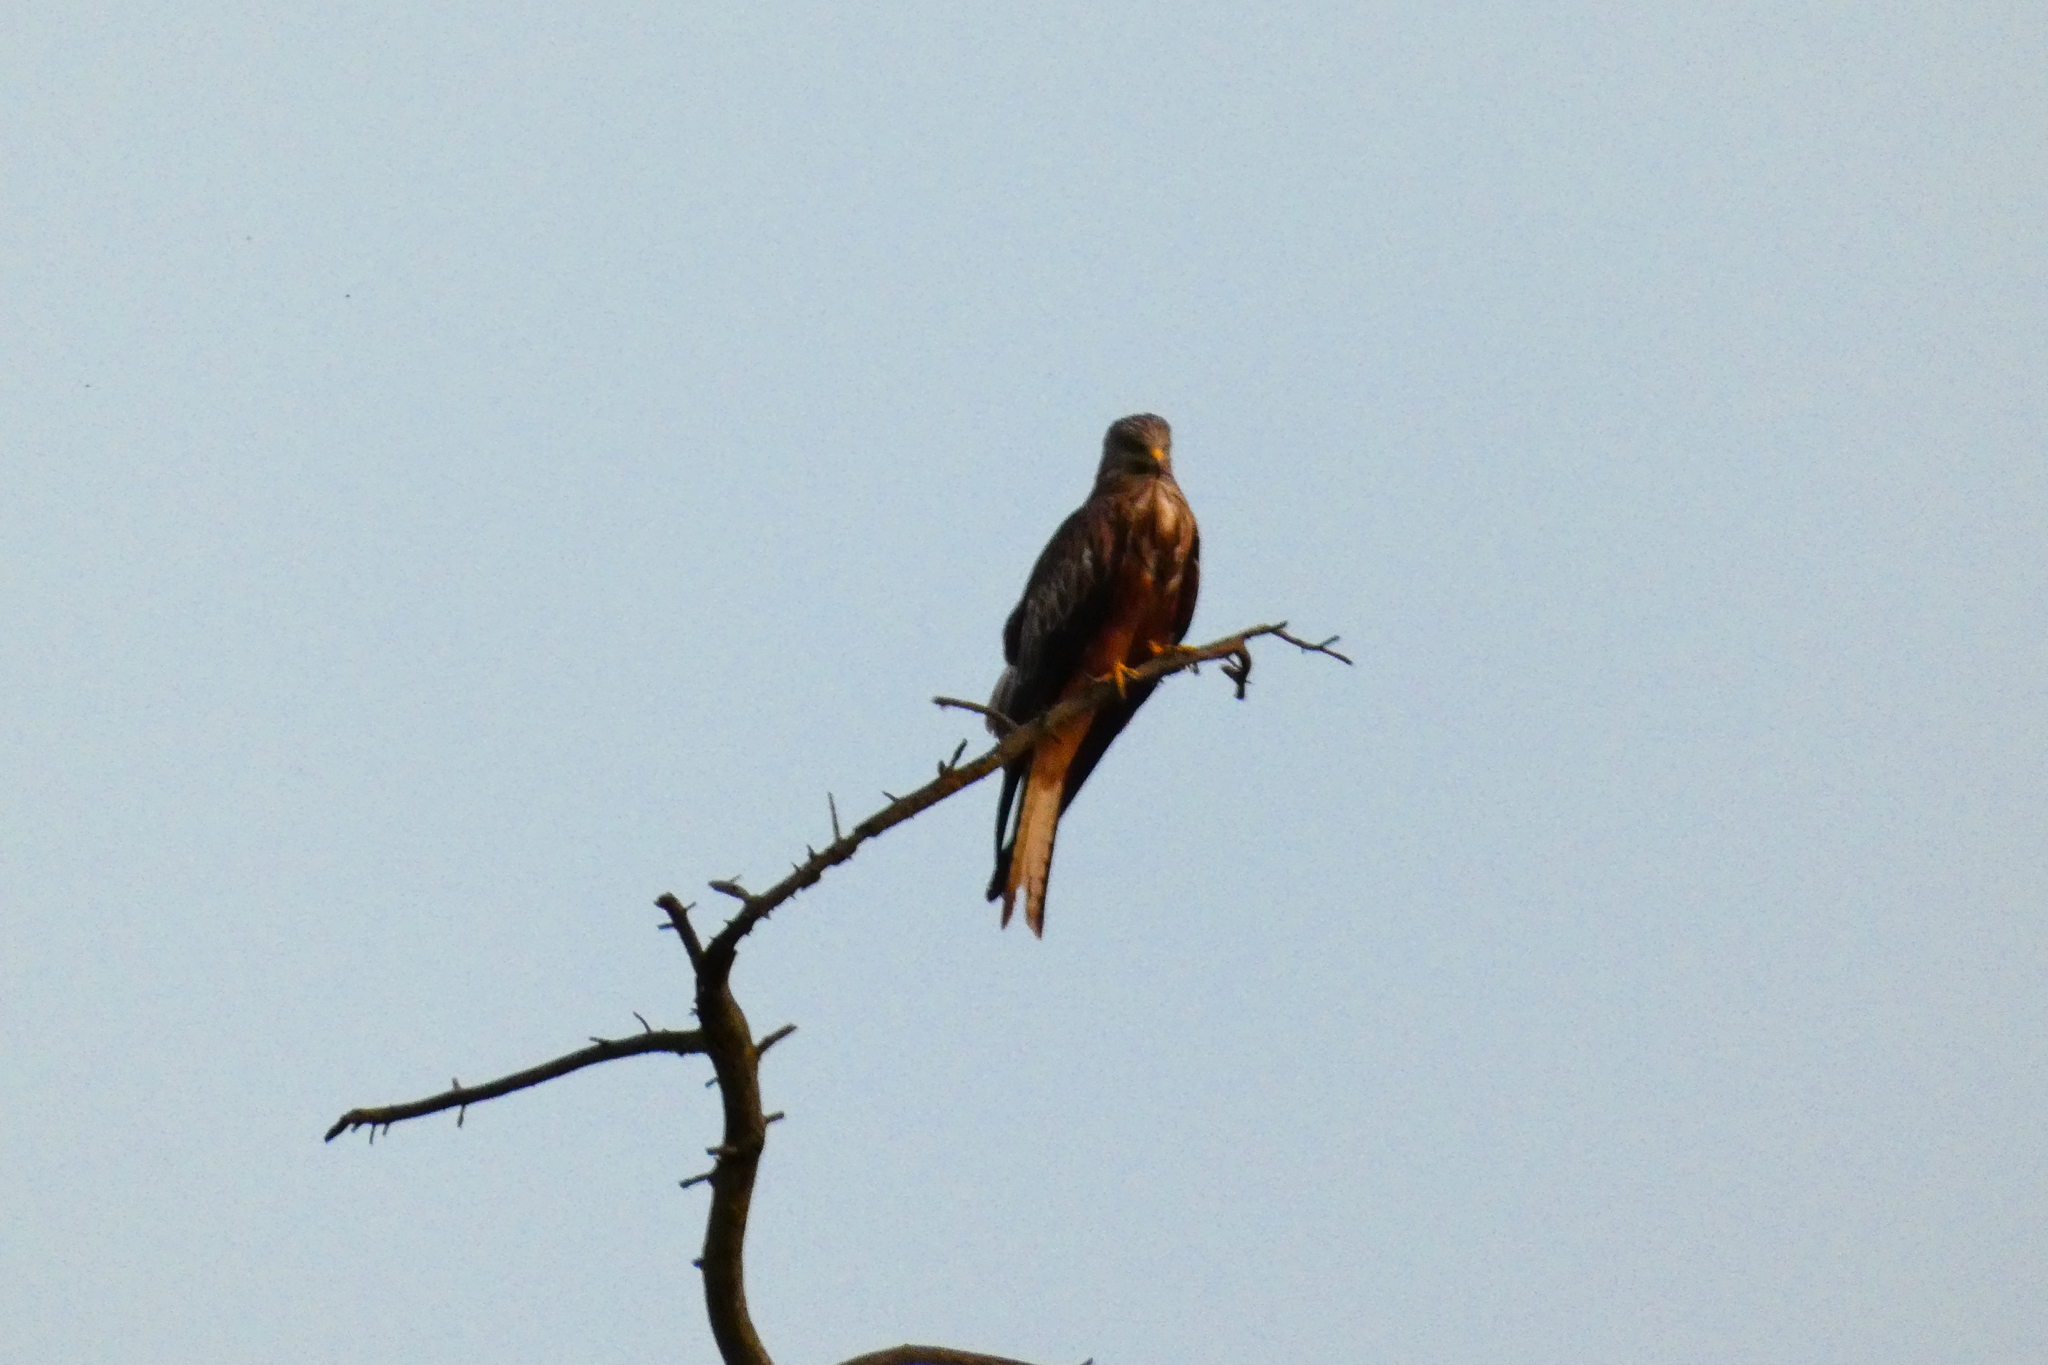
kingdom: Animalia
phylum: Chordata
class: Aves
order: Accipitriformes
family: Accipitridae
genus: Milvus
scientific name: Milvus milvus
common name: Red kite
